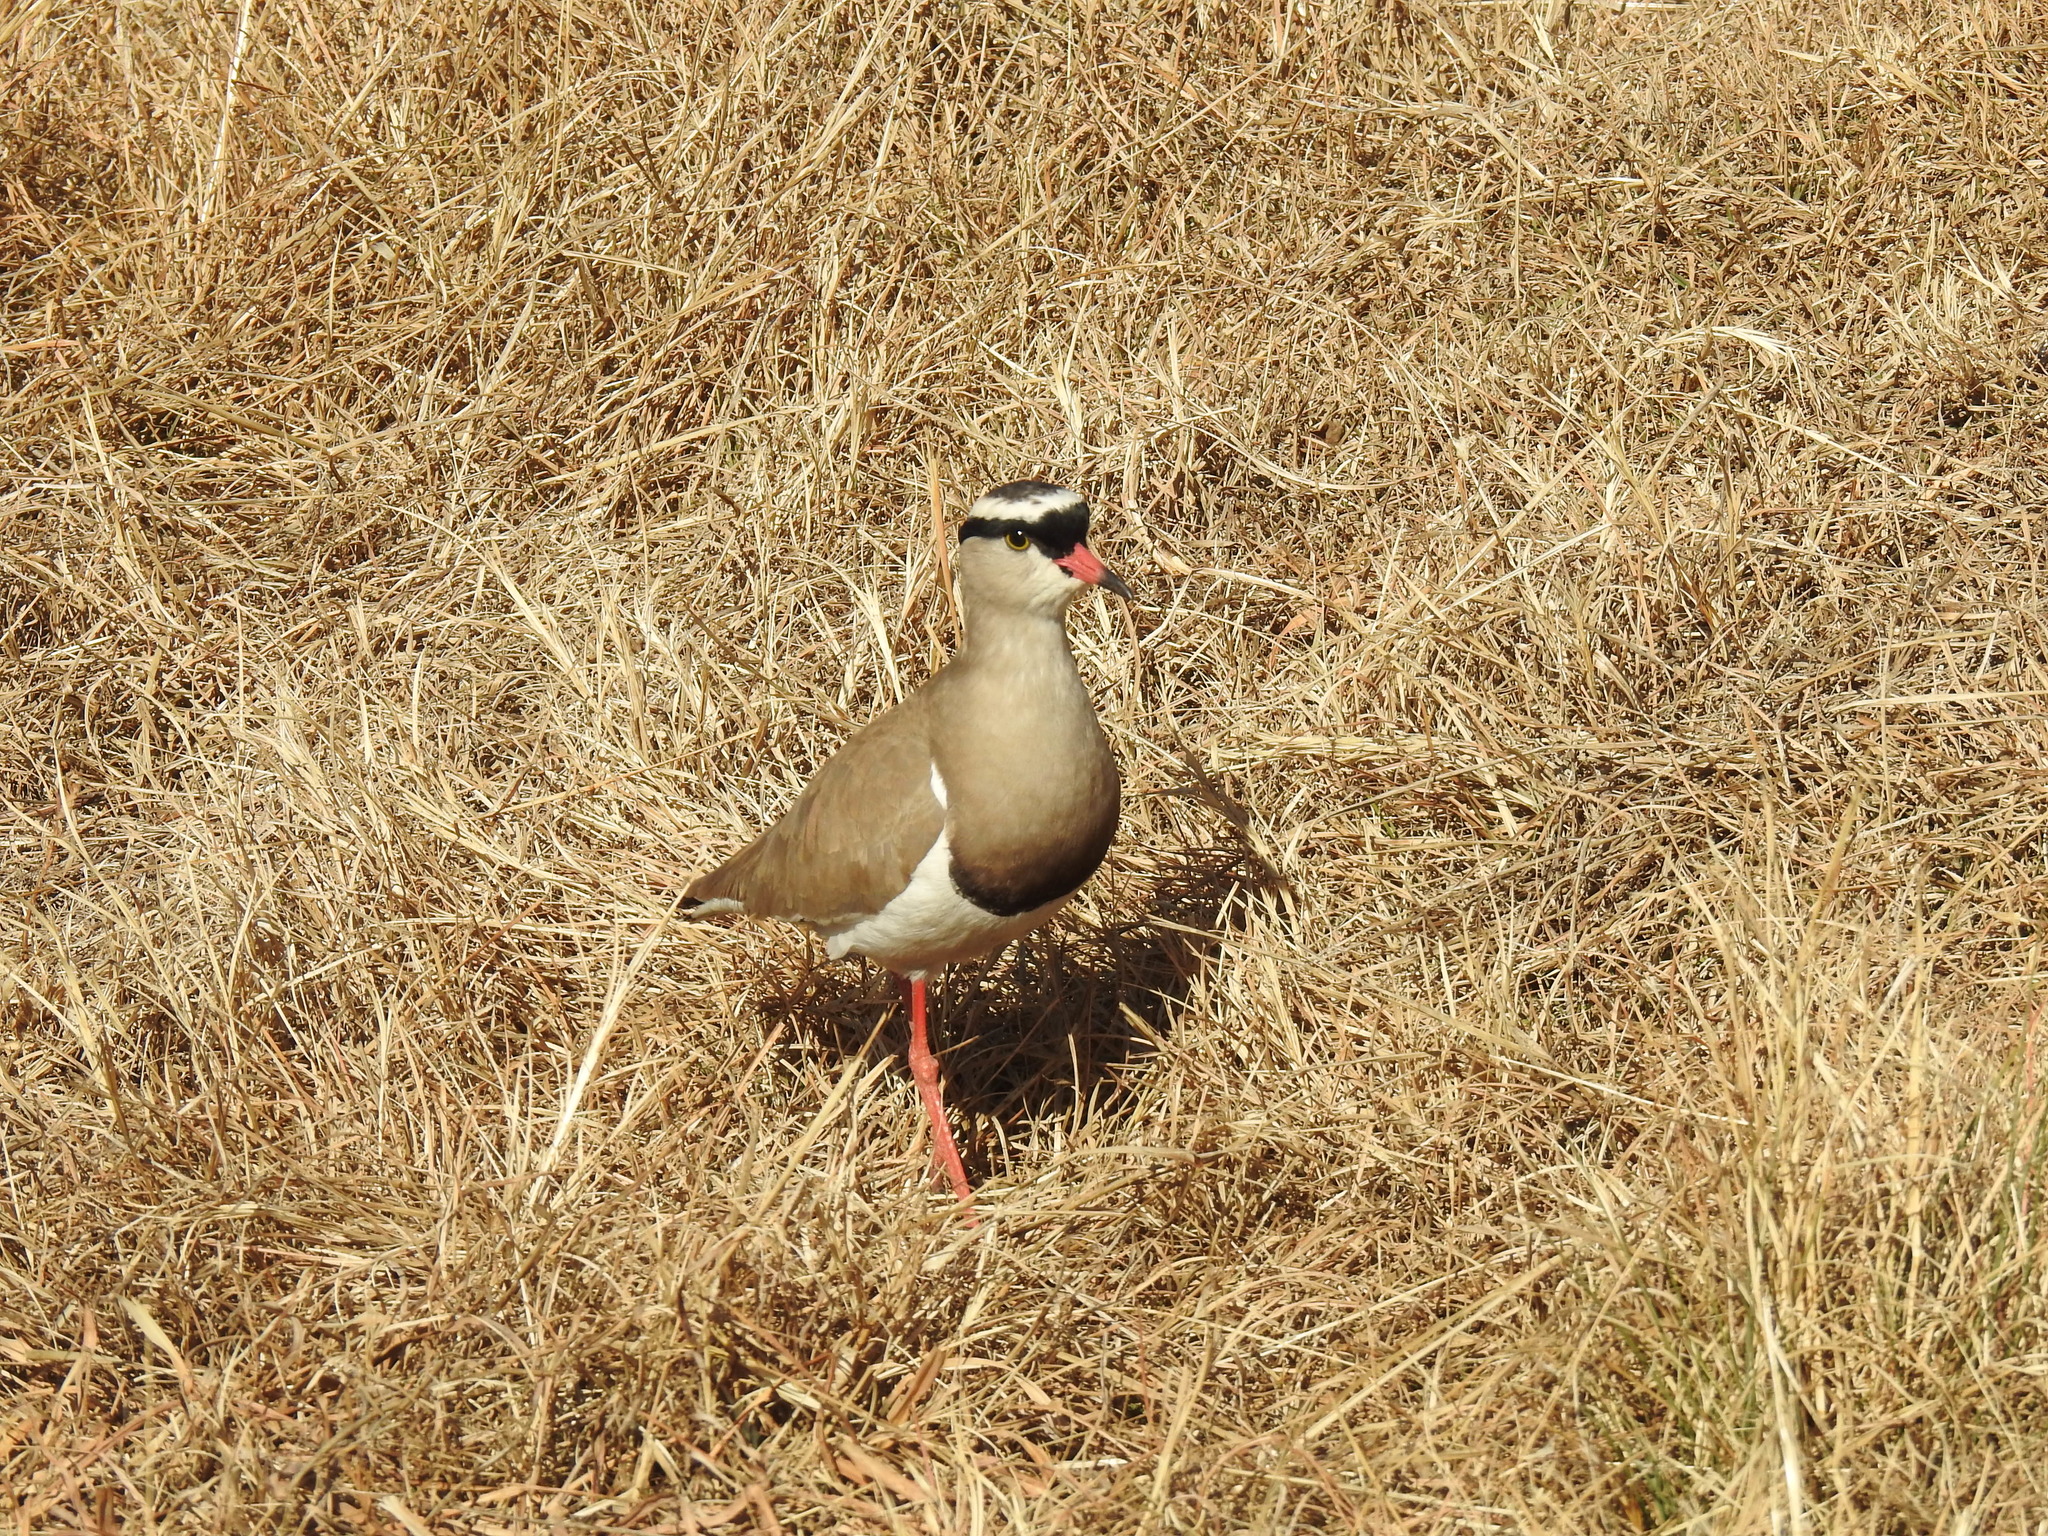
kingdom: Animalia
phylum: Chordata
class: Aves
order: Charadriiformes
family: Charadriidae
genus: Vanellus
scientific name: Vanellus coronatus
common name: Crowned lapwing
